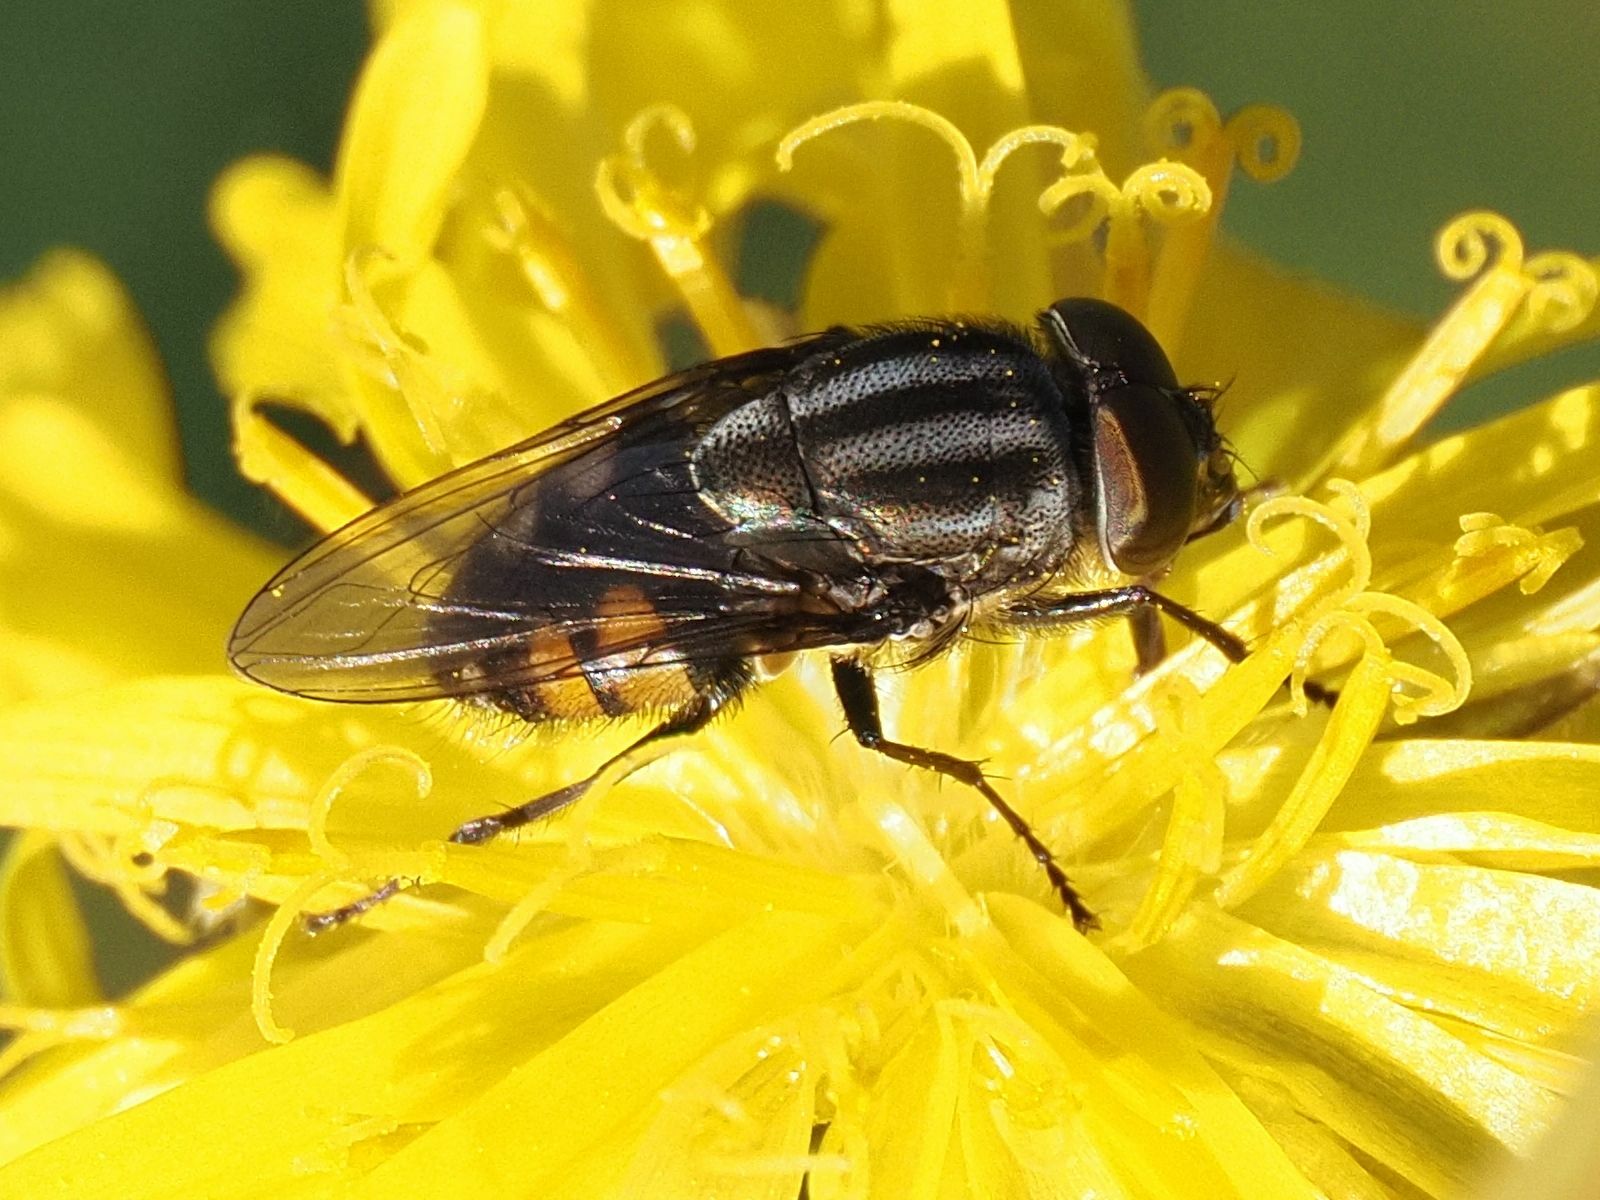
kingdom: Animalia
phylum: Arthropoda
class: Insecta
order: Diptera
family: Calliphoridae
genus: Stomorhina
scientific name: Stomorhina lunata
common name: Locust blowfly
